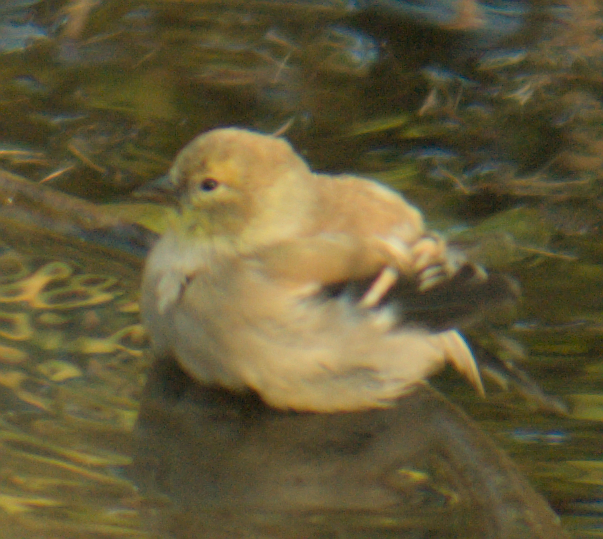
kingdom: Animalia
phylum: Chordata
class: Aves
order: Passeriformes
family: Fringillidae
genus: Spinus
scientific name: Spinus tristis
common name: American goldfinch
